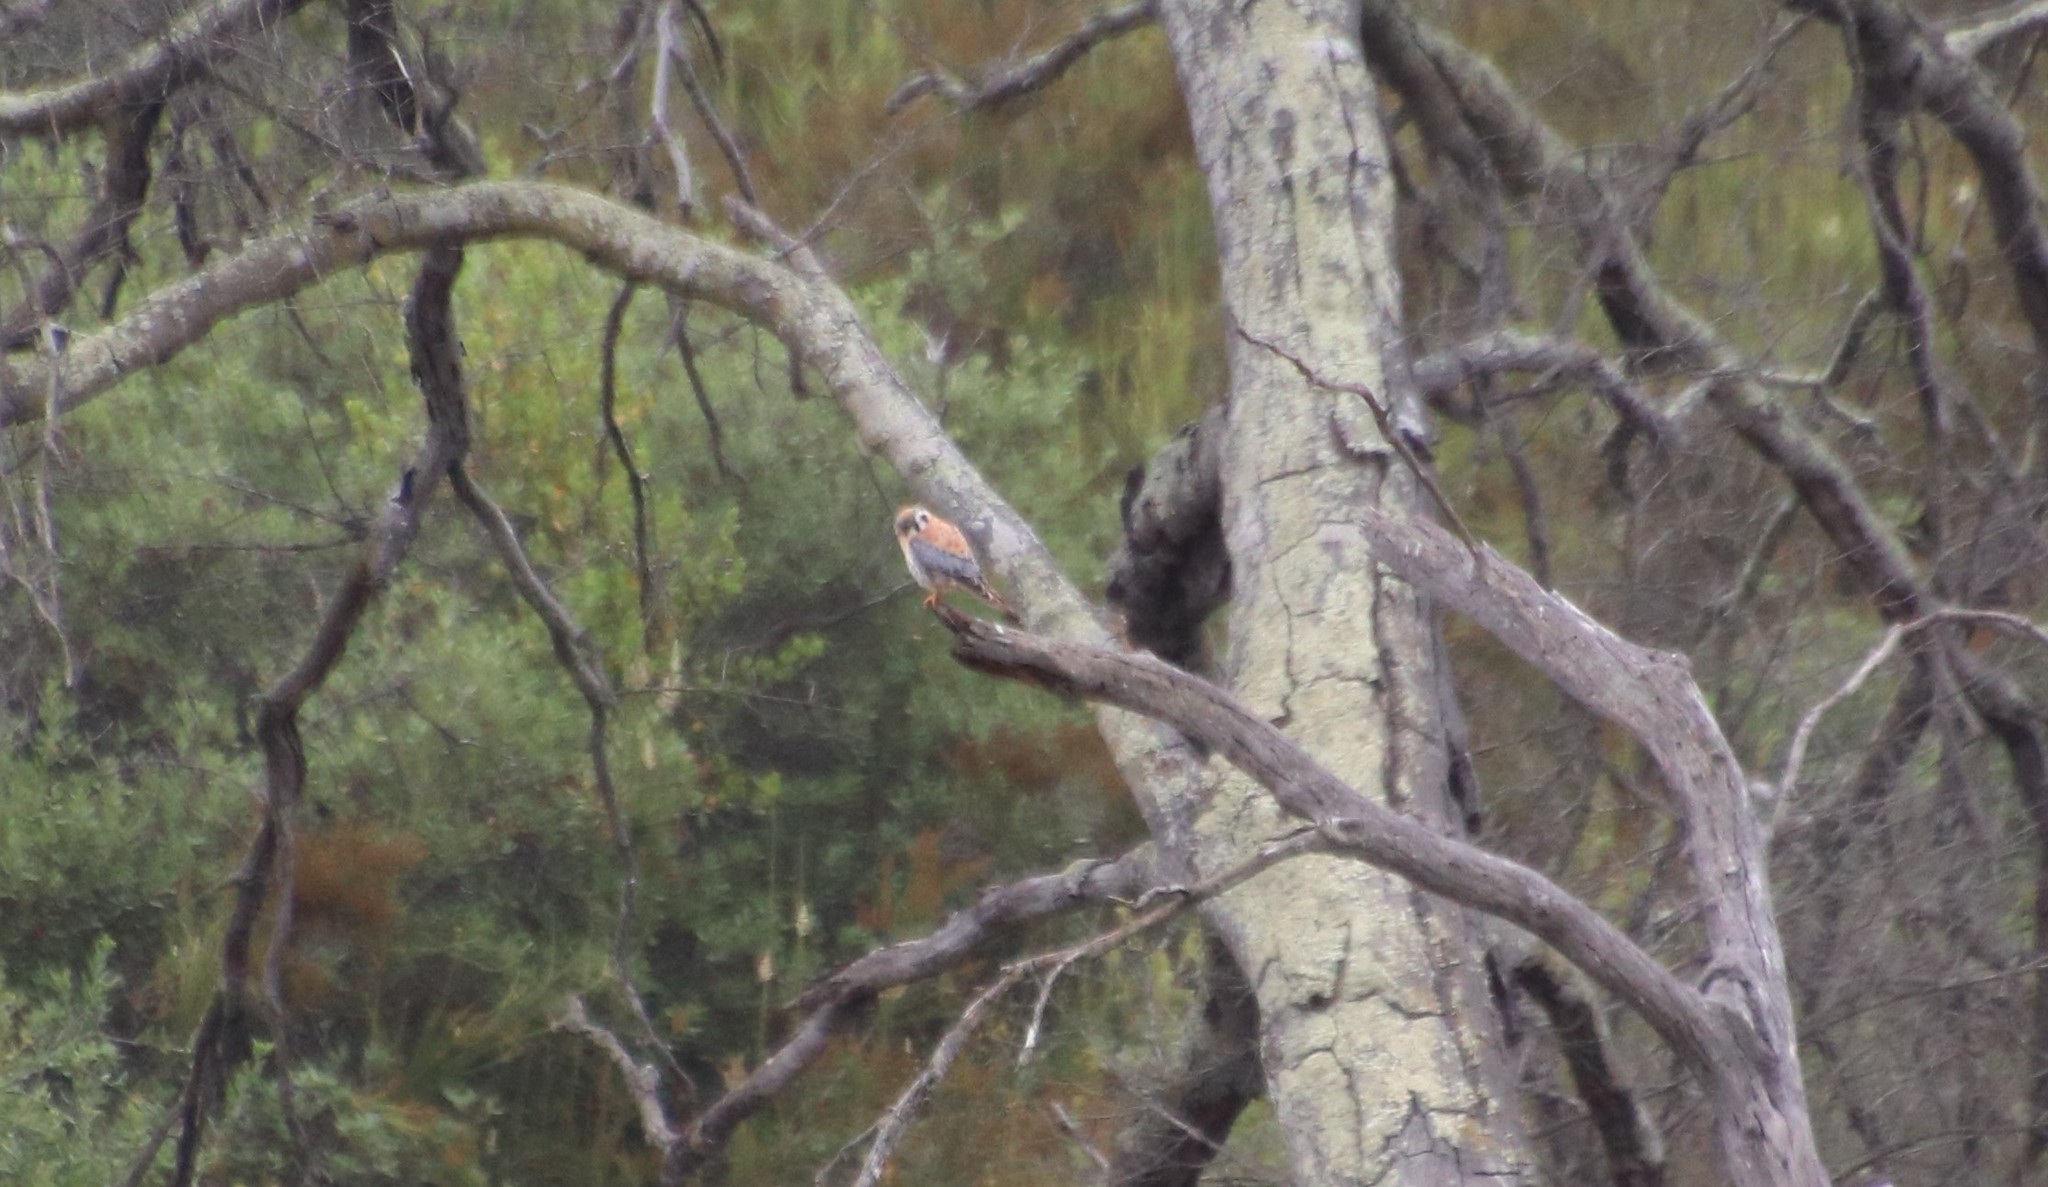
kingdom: Animalia
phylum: Chordata
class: Aves
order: Falconiformes
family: Falconidae
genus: Falco
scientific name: Falco sparverius
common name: American kestrel
